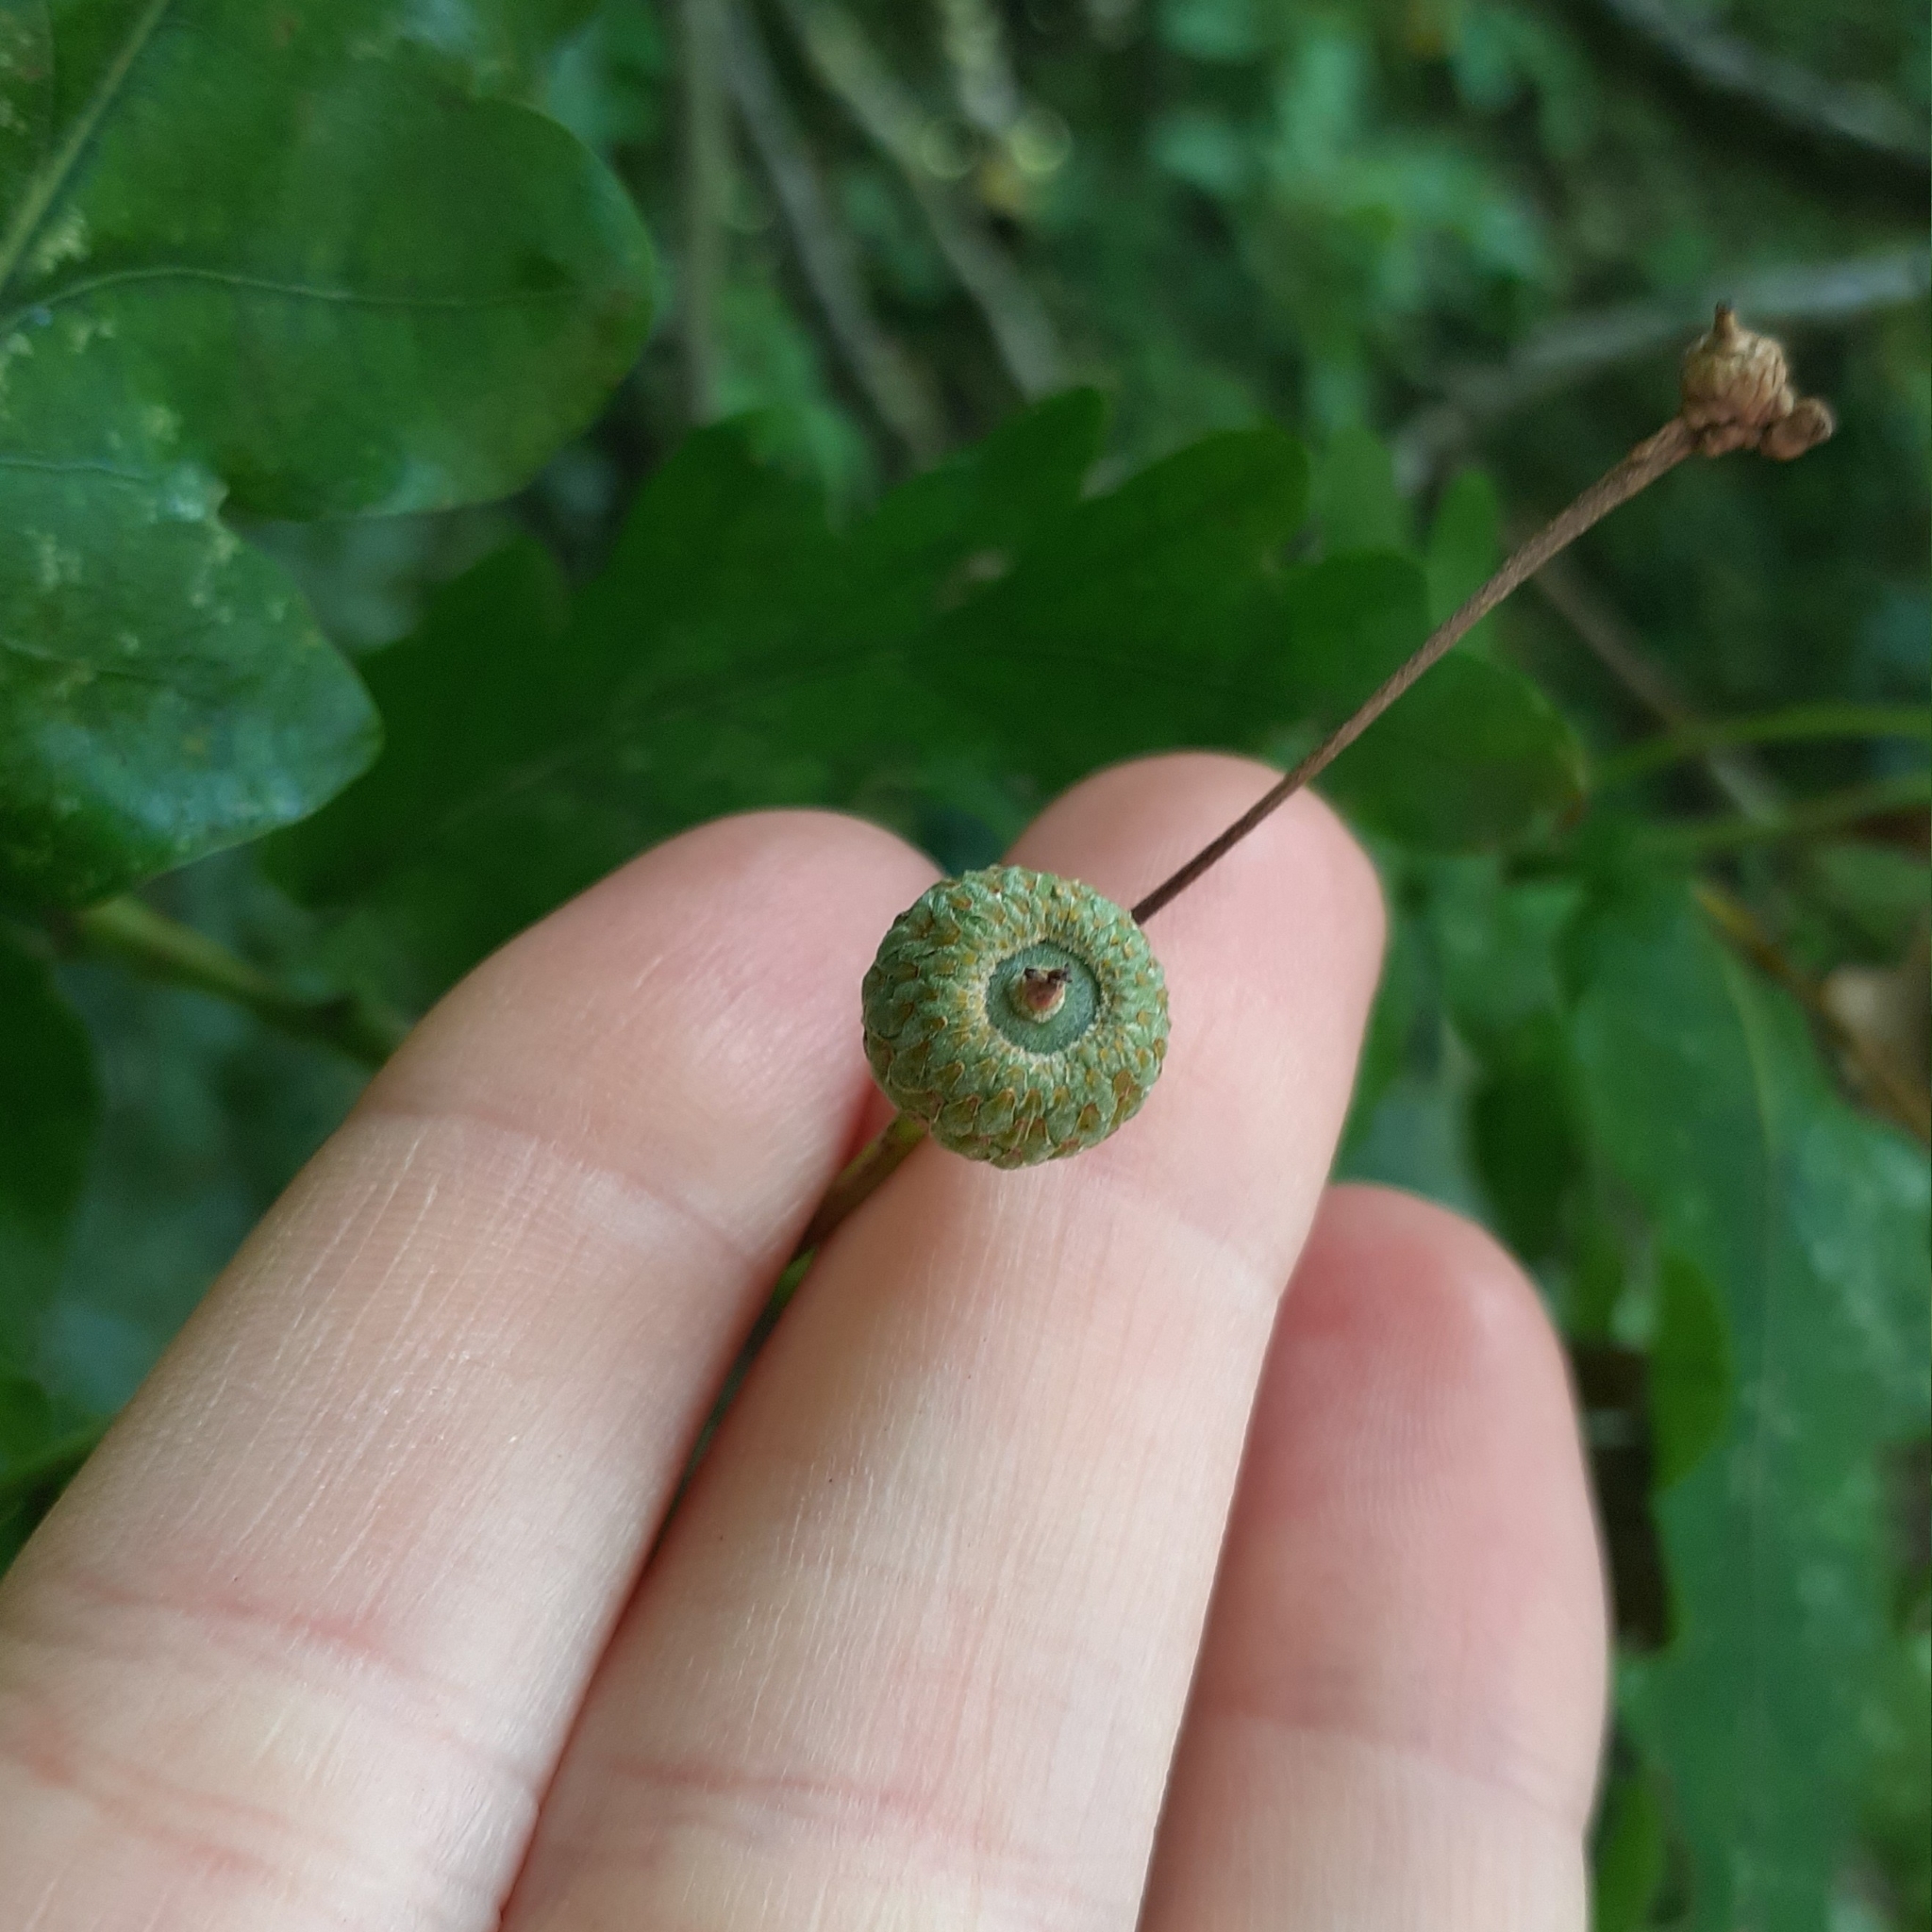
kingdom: Plantae
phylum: Tracheophyta
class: Magnoliopsida
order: Fagales
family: Fagaceae
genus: Quercus
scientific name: Quercus robur
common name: Pedunculate oak
